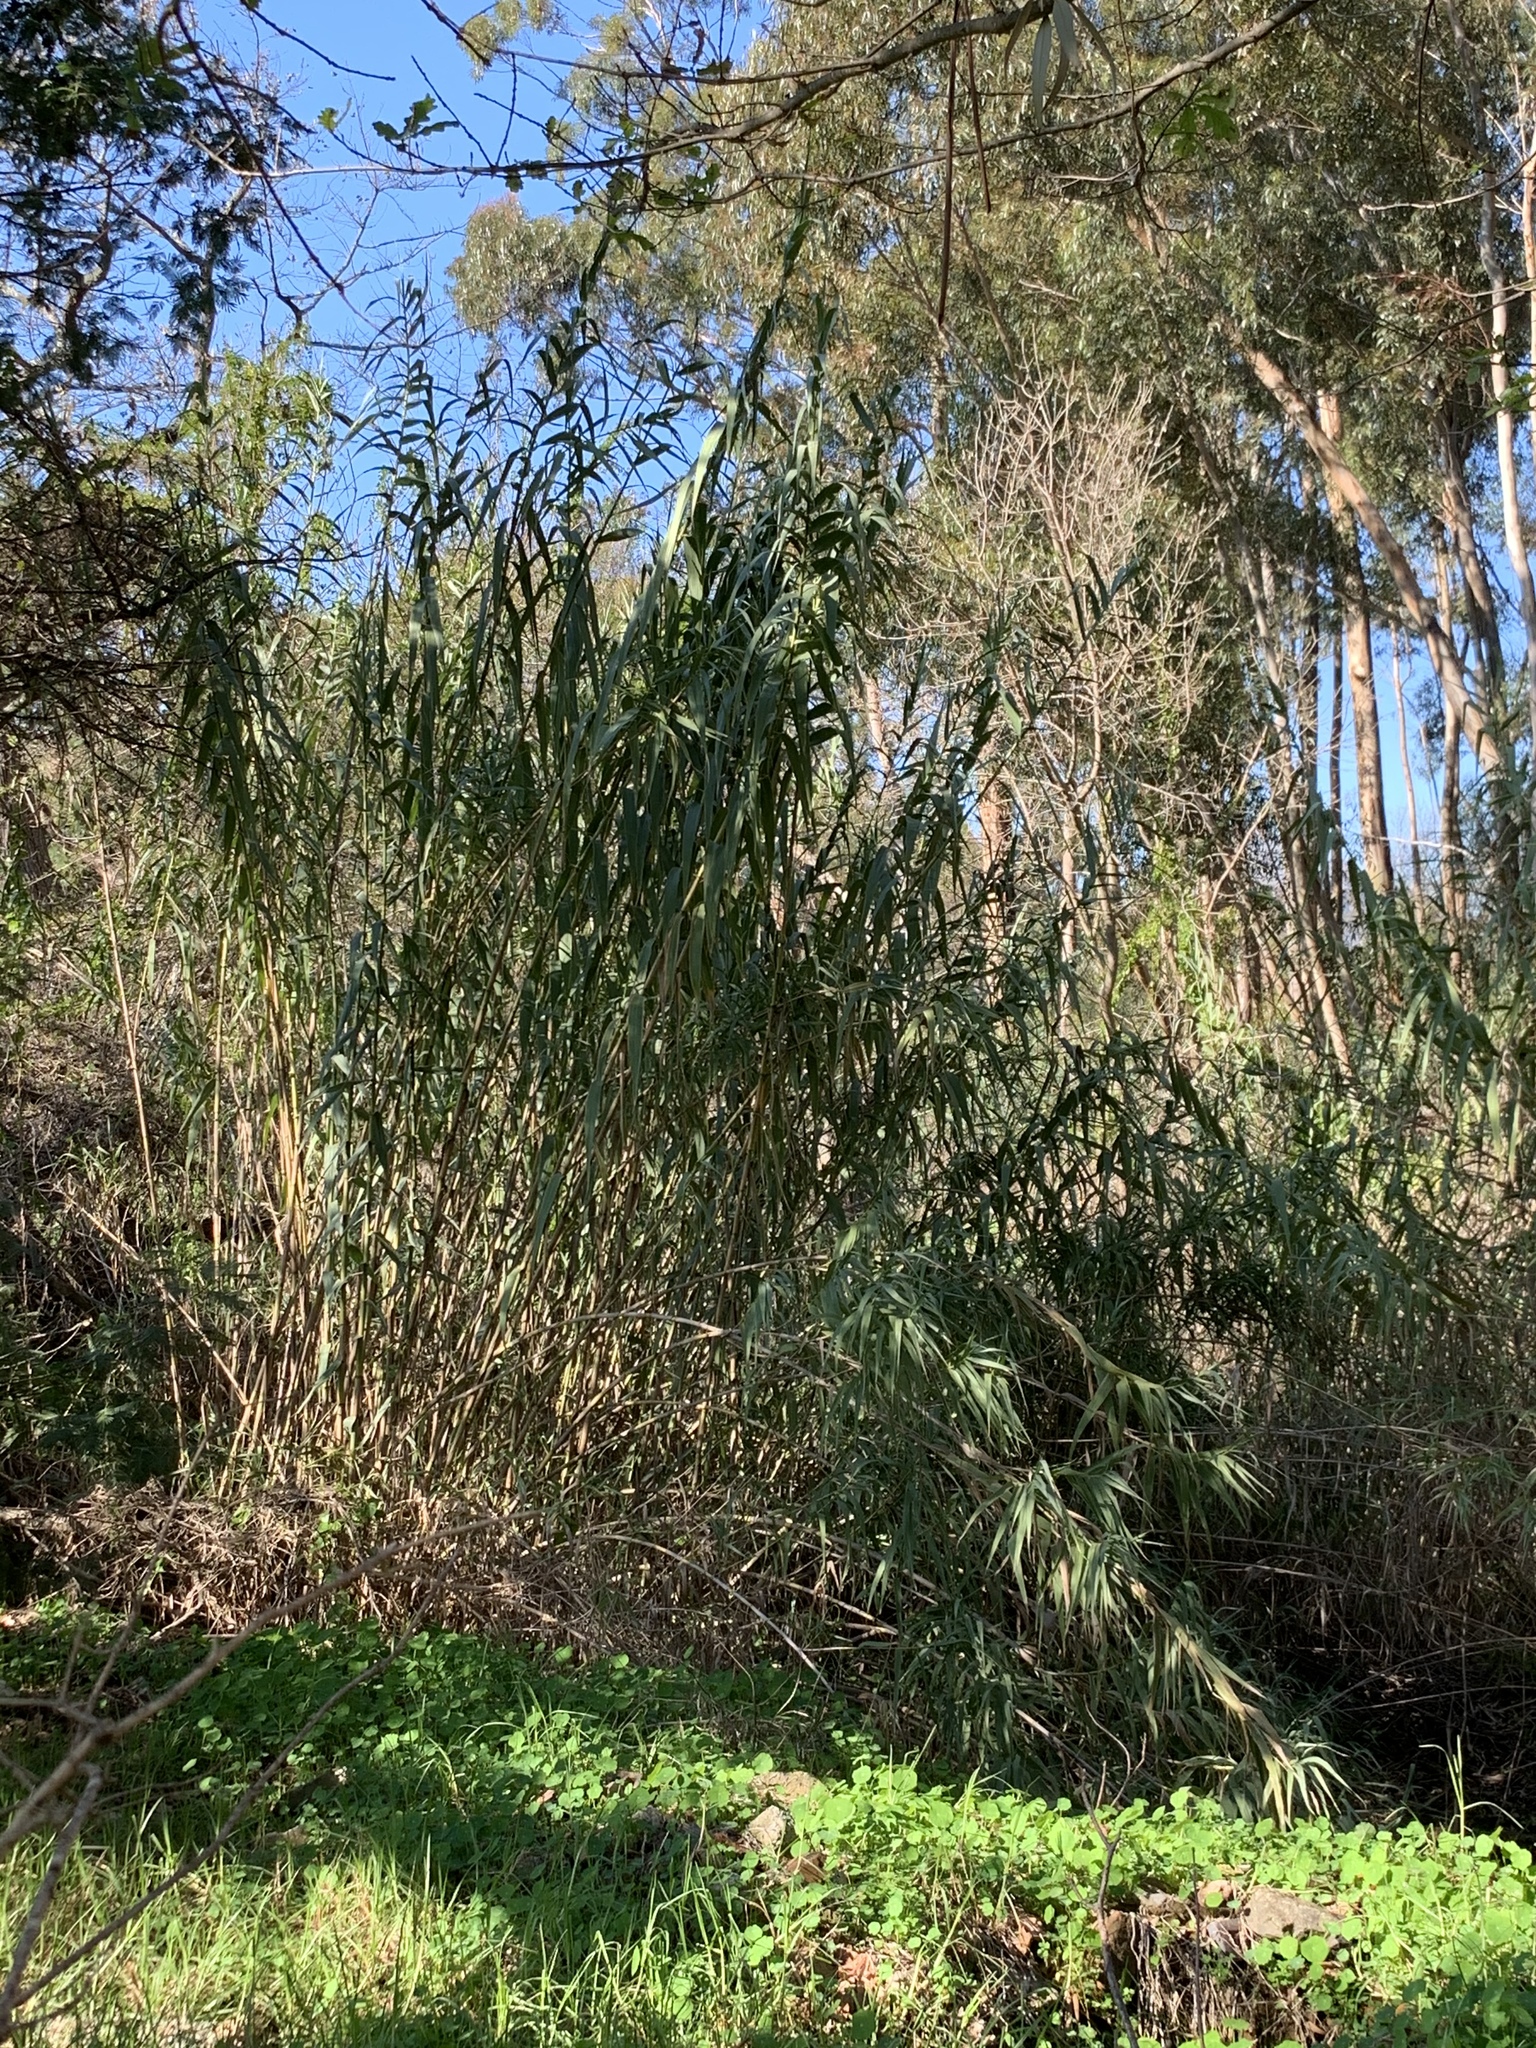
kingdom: Plantae
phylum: Tracheophyta
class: Liliopsida
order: Poales
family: Poaceae
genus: Arundo
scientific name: Arundo donax
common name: Giant reed
